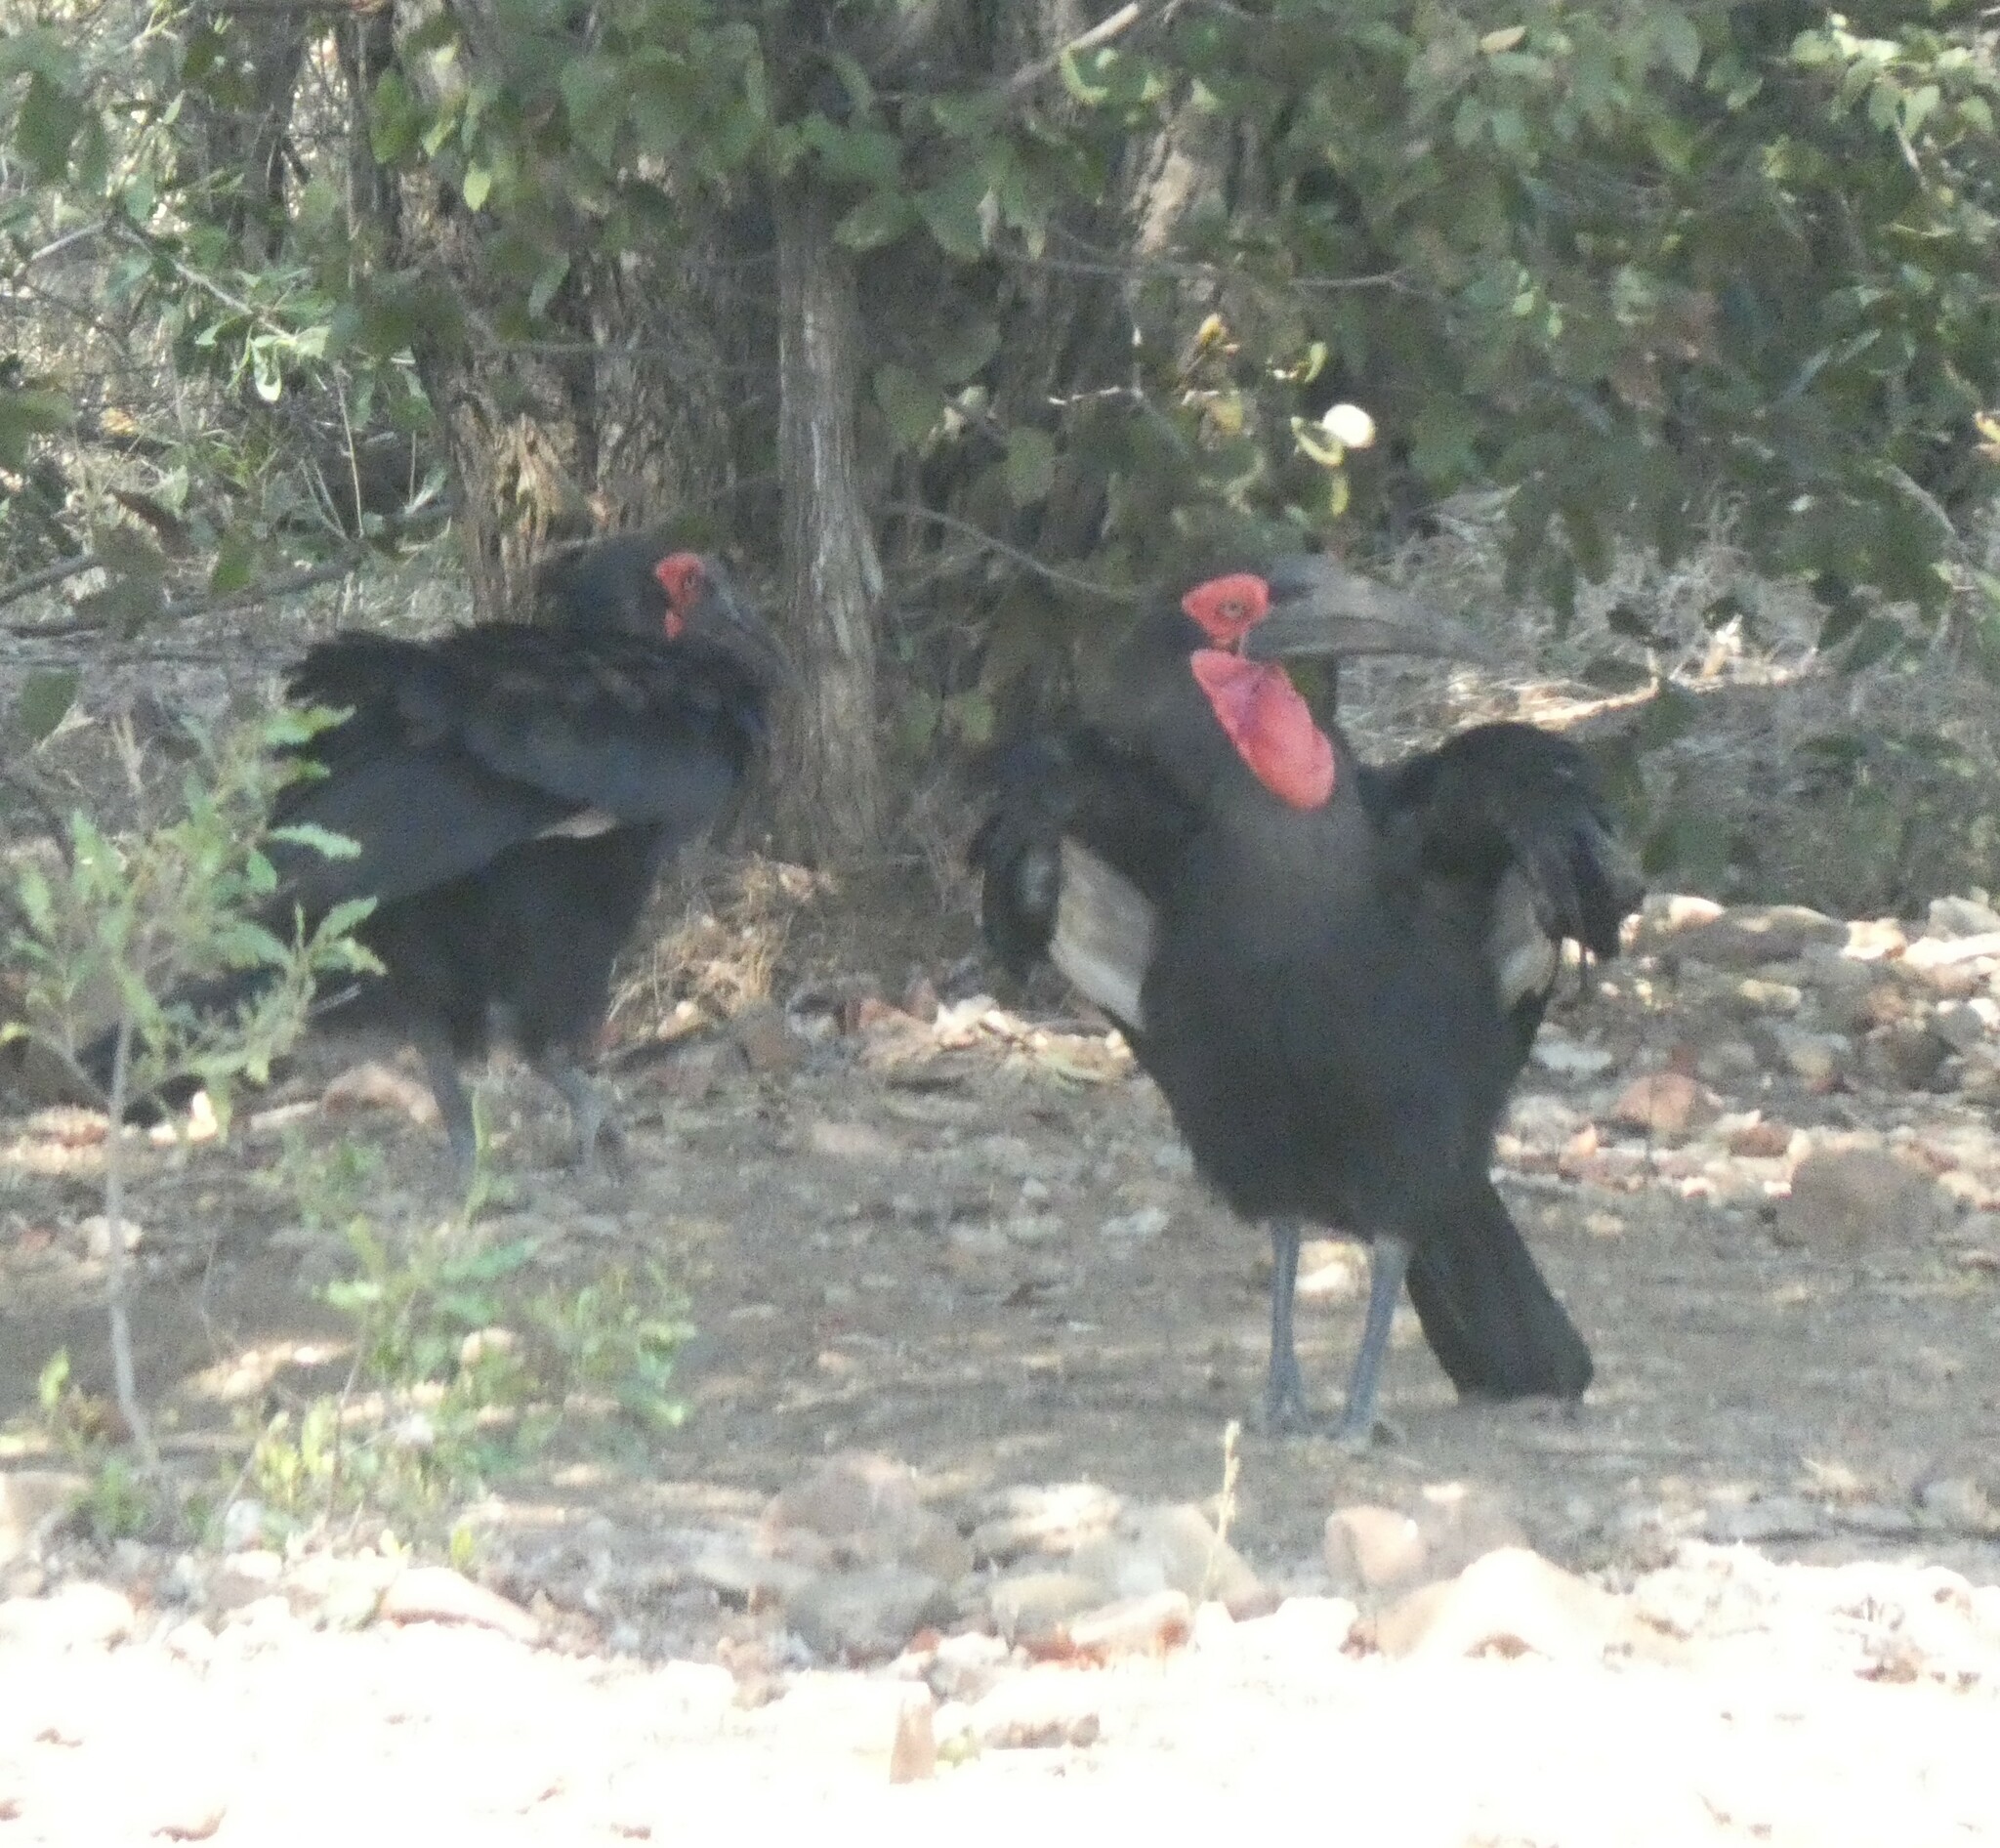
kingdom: Animalia
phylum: Chordata
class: Aves
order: Bucerotiformes
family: Bucorvidae
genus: Bucorvus
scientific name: Bucorvus leadbeateri
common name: Southern ground-hornbill
